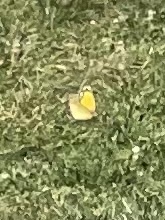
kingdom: Animalia
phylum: Arthropoda
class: Insecta
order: Lepidoptera
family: Pieridae
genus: Colias
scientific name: Colias eurytheme
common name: Alfalfa butterfly
